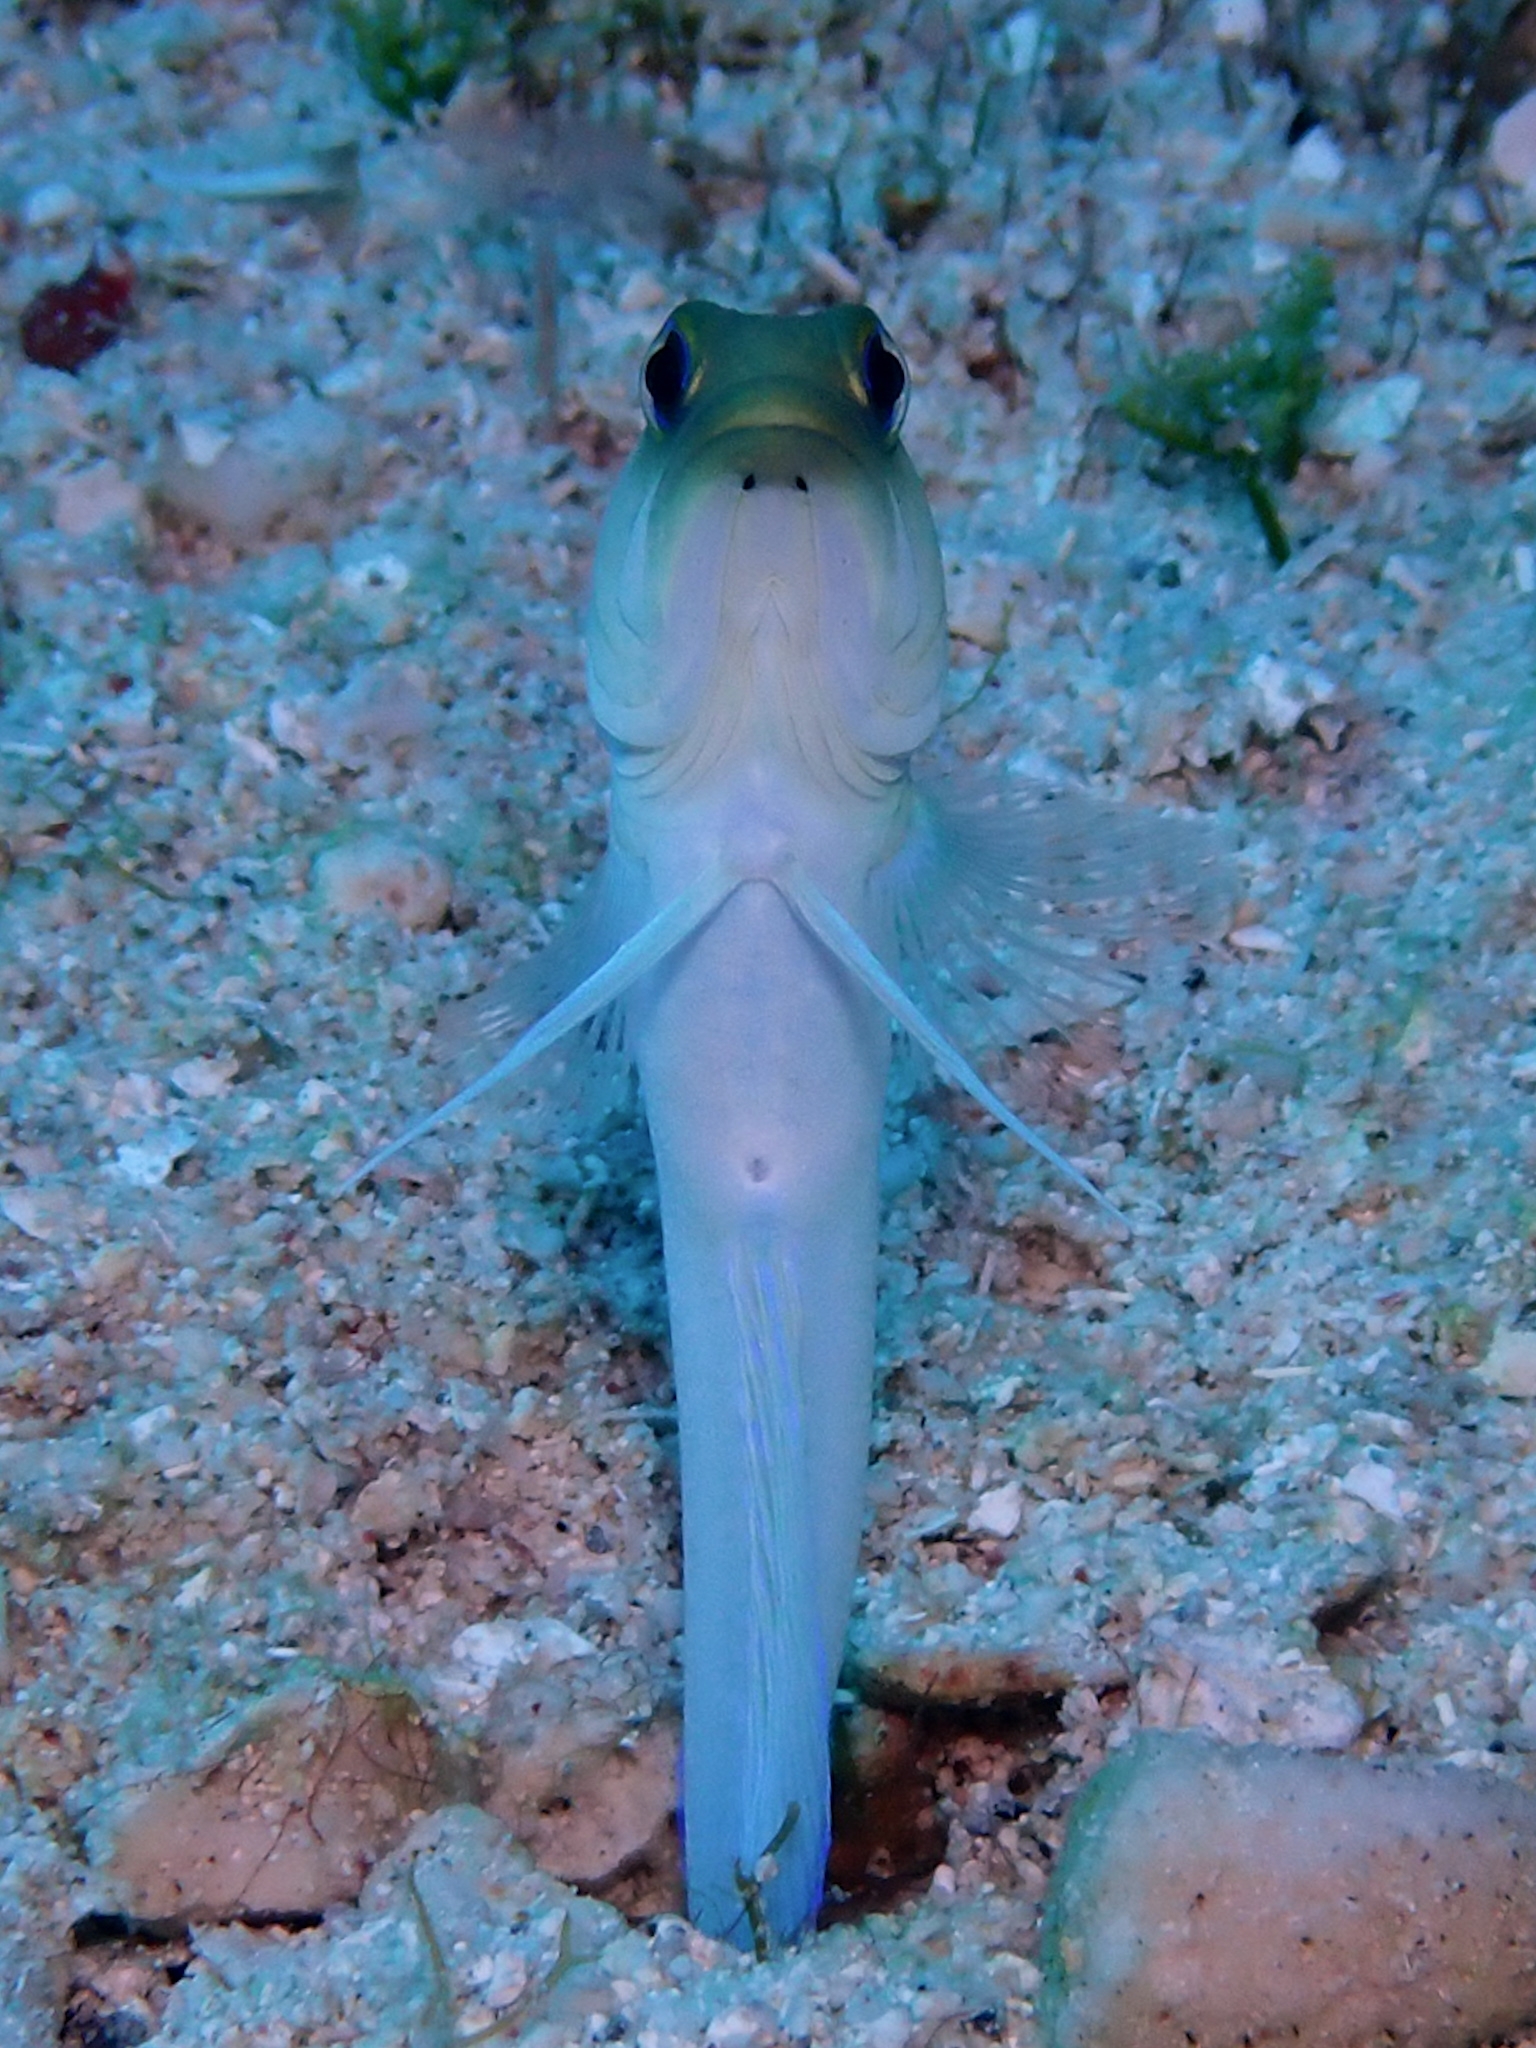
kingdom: Animalia
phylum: Chordata
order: Perciformes
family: Opistognathidae
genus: Opistognathus
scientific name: Opistognathus aurifrons
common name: Yellowhead jawfish
